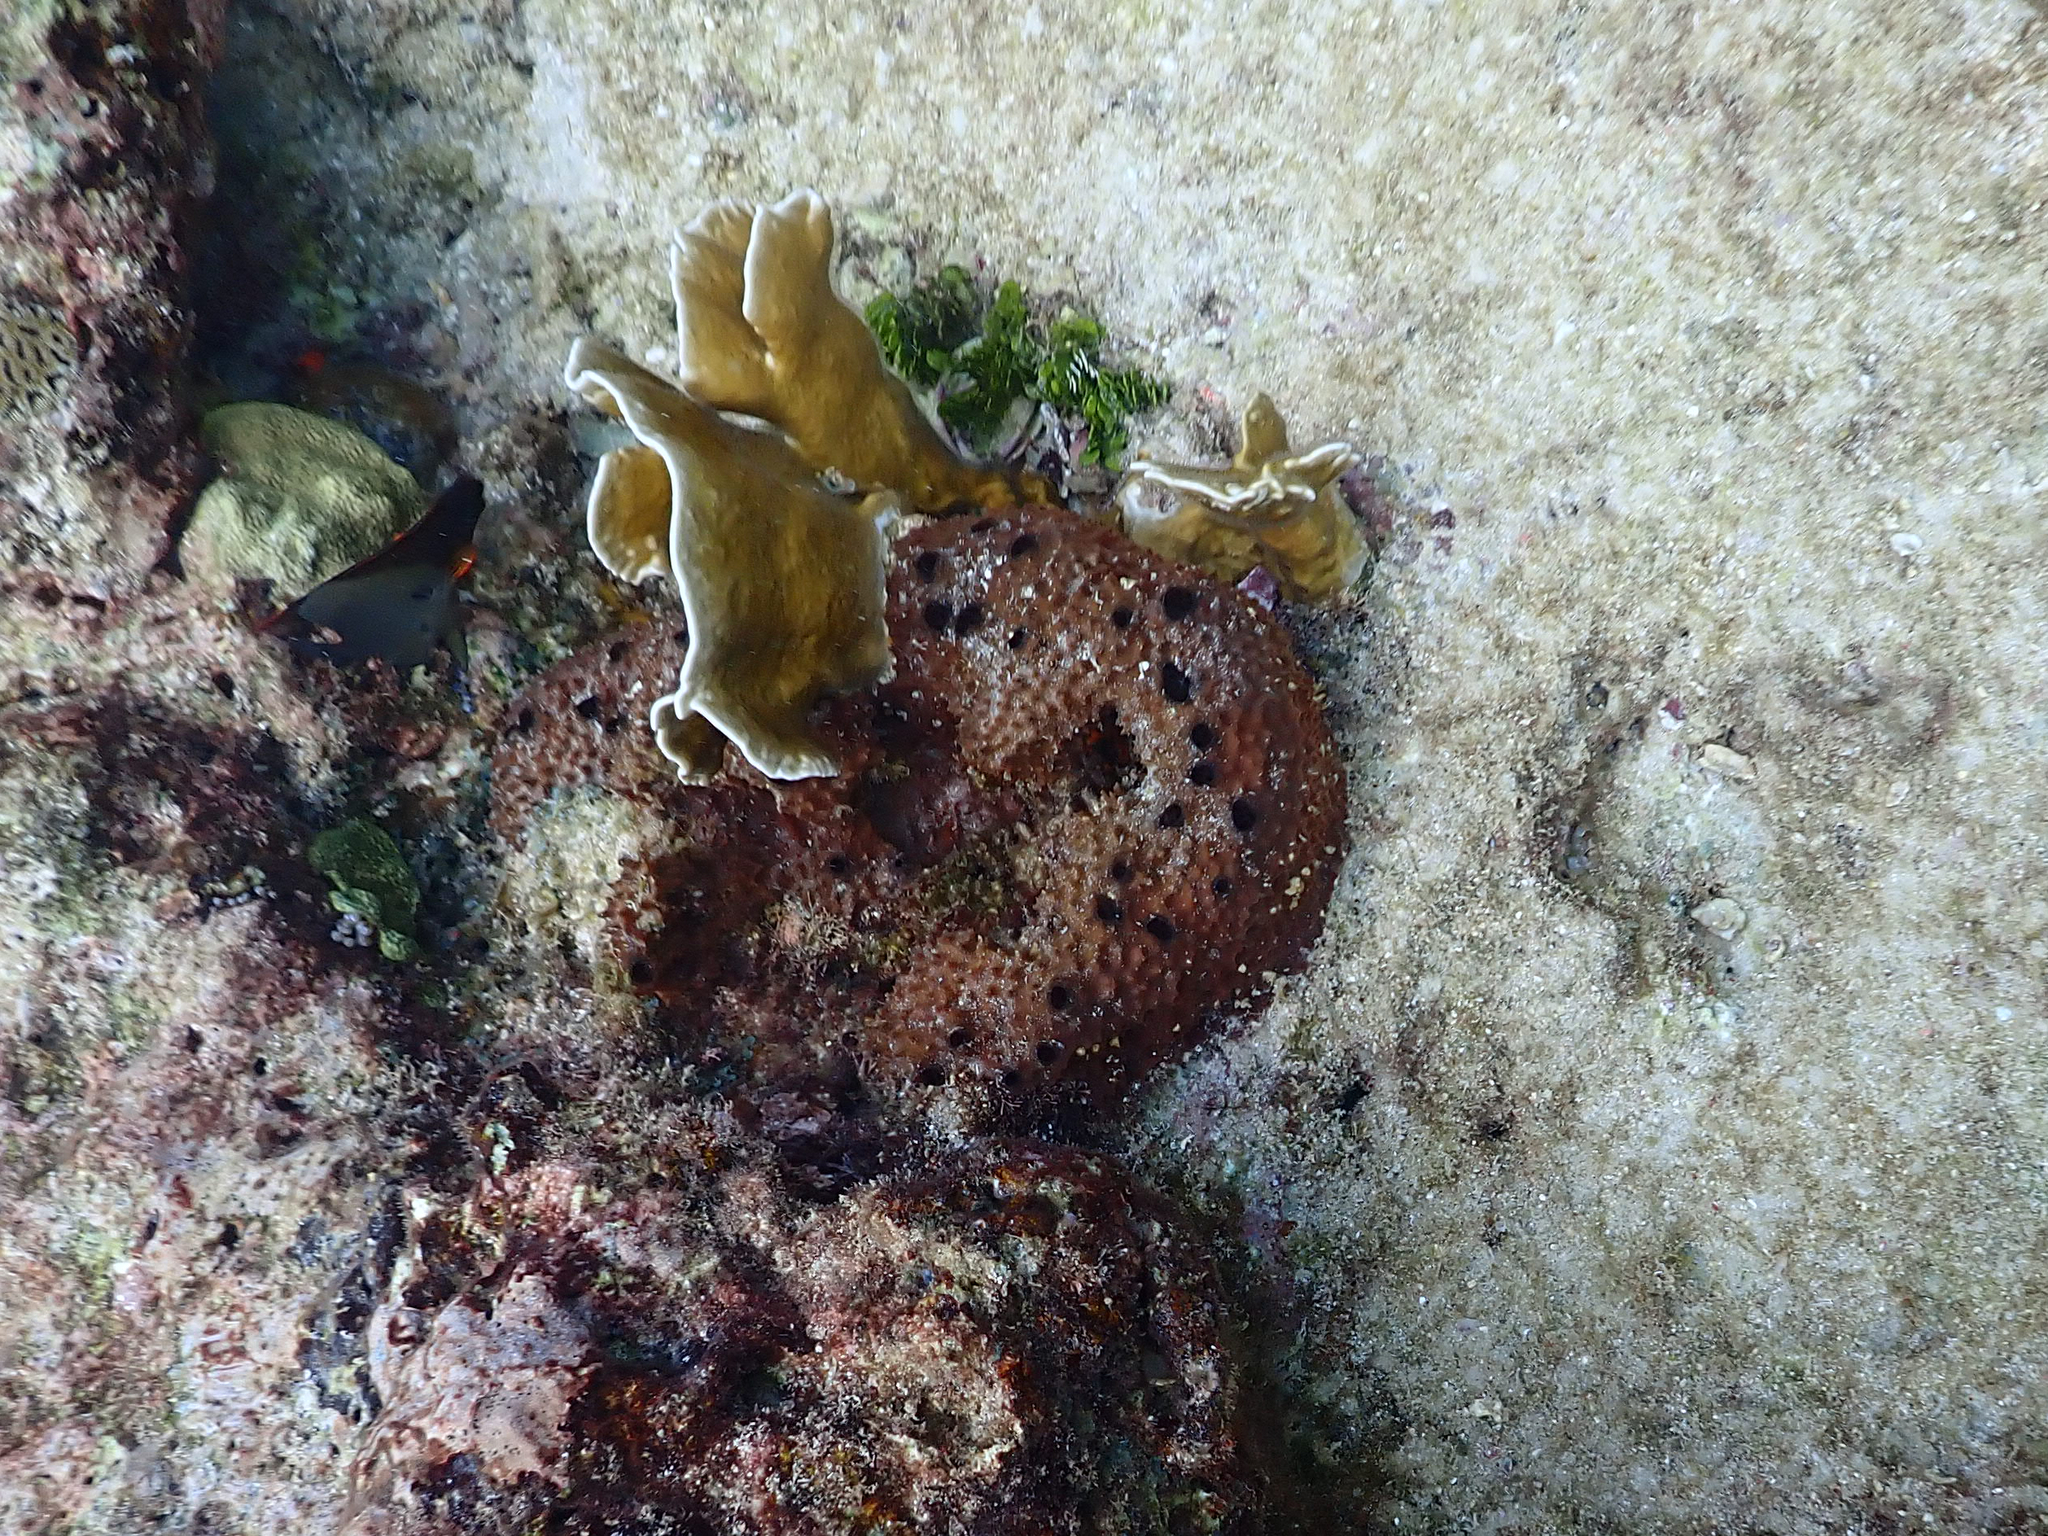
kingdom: Animalia
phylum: Porifera
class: Demospongiae
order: Dictyoceratida
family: Irciniidae
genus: Ircinia
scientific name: Ircinia felix
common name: Stinker sponge
